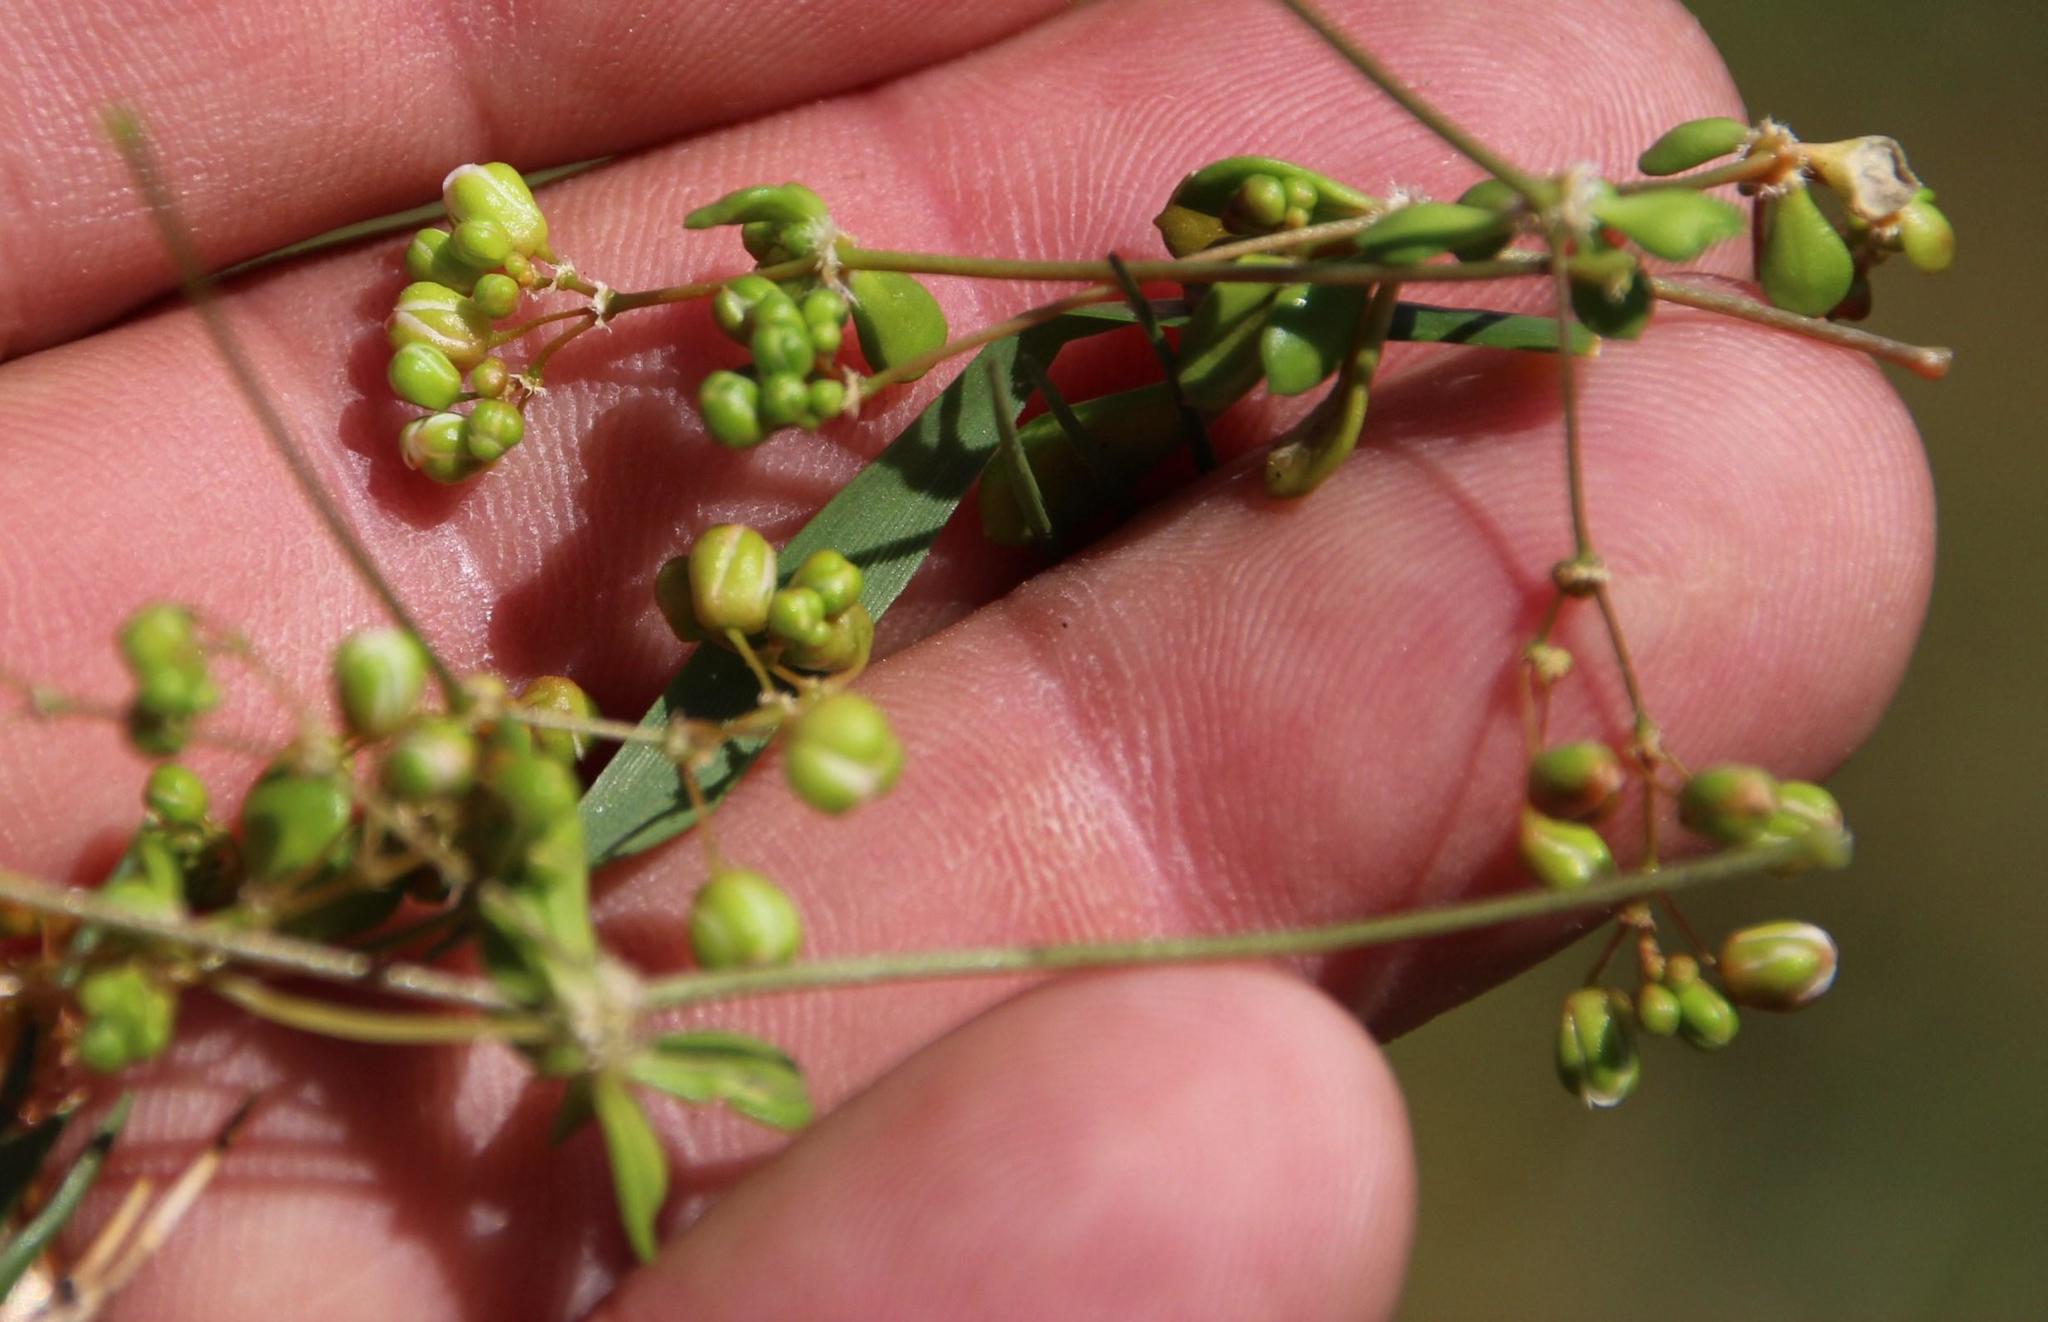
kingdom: Plantae
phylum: Tracheophyta
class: Magnoliopsida
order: Caryophyllales
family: Molluginaceae
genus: Pharnaceum
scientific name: Pharnaceum cordifolium
